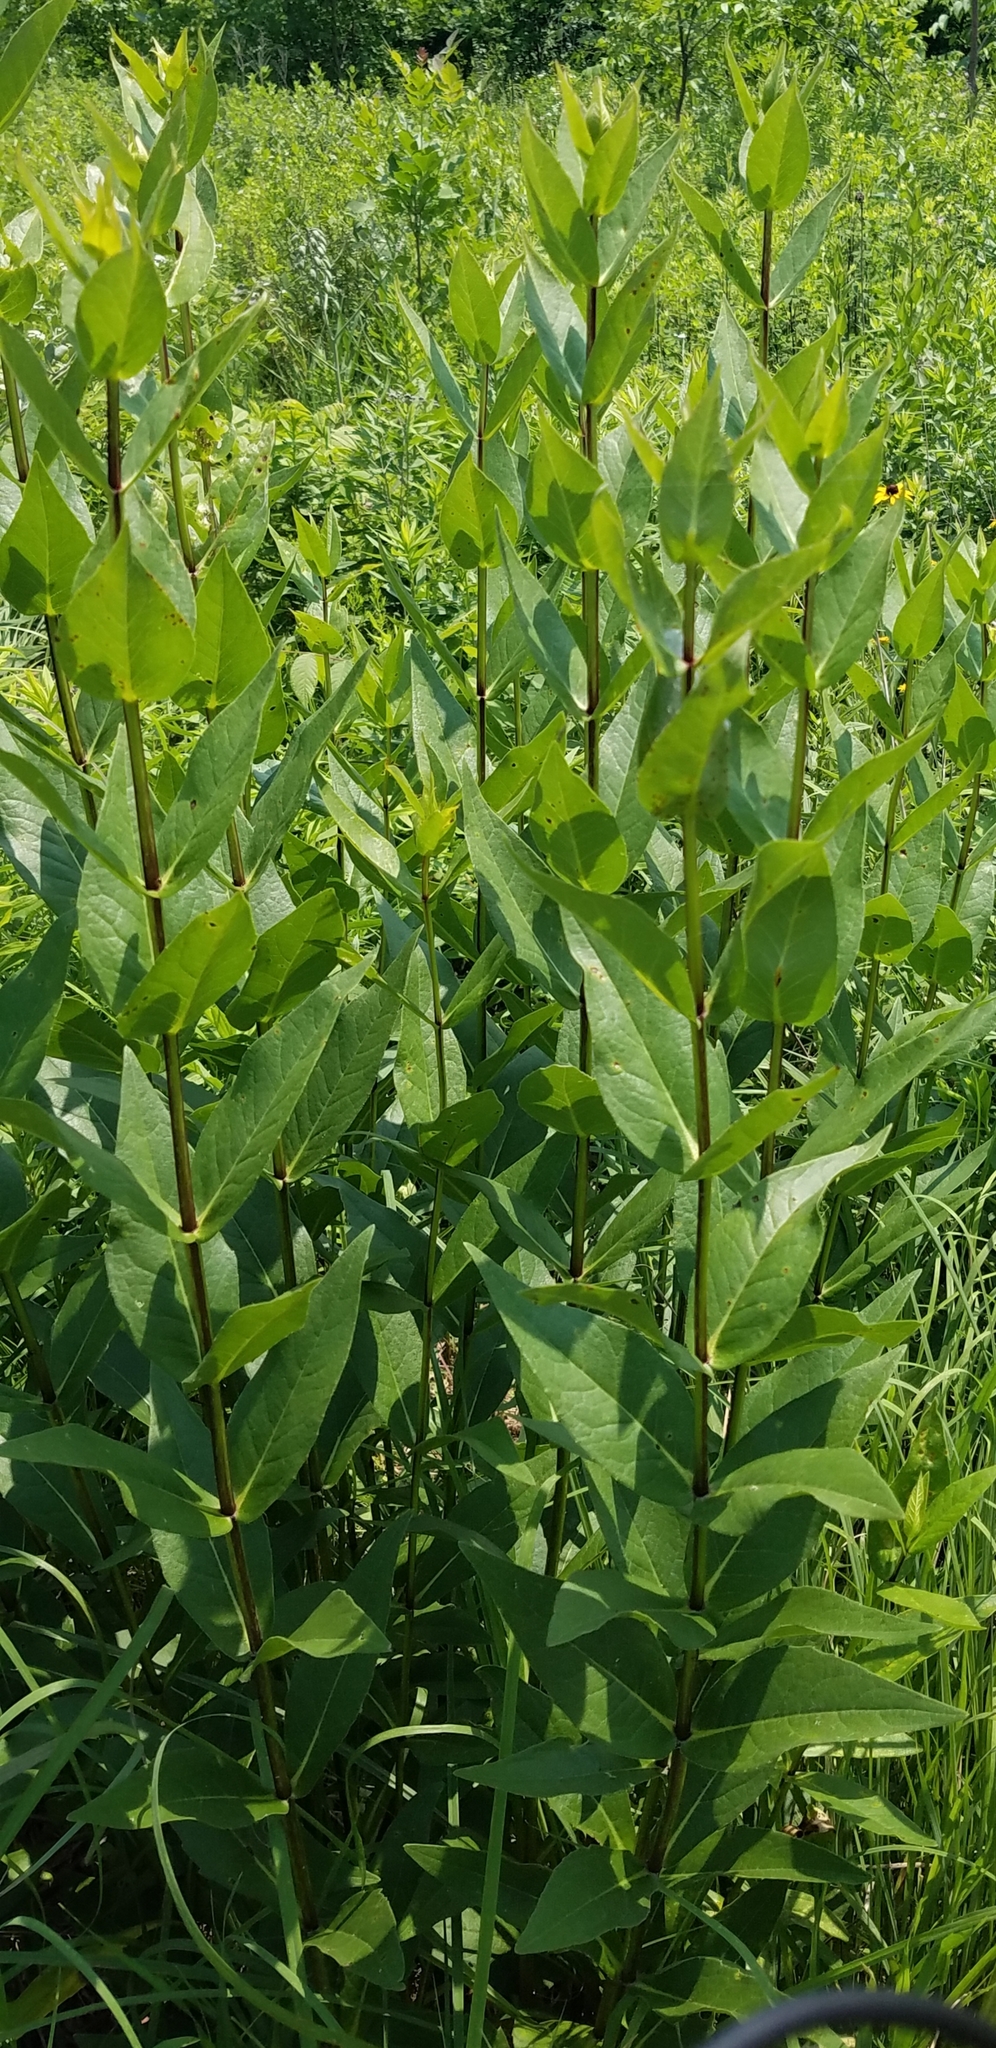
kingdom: Plantae
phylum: Tracheophyta
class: Magnoliopsida
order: Asterales
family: Asteraceae
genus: Silphium
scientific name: Silphium integrifolium
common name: Whole-leaf rosinweed
